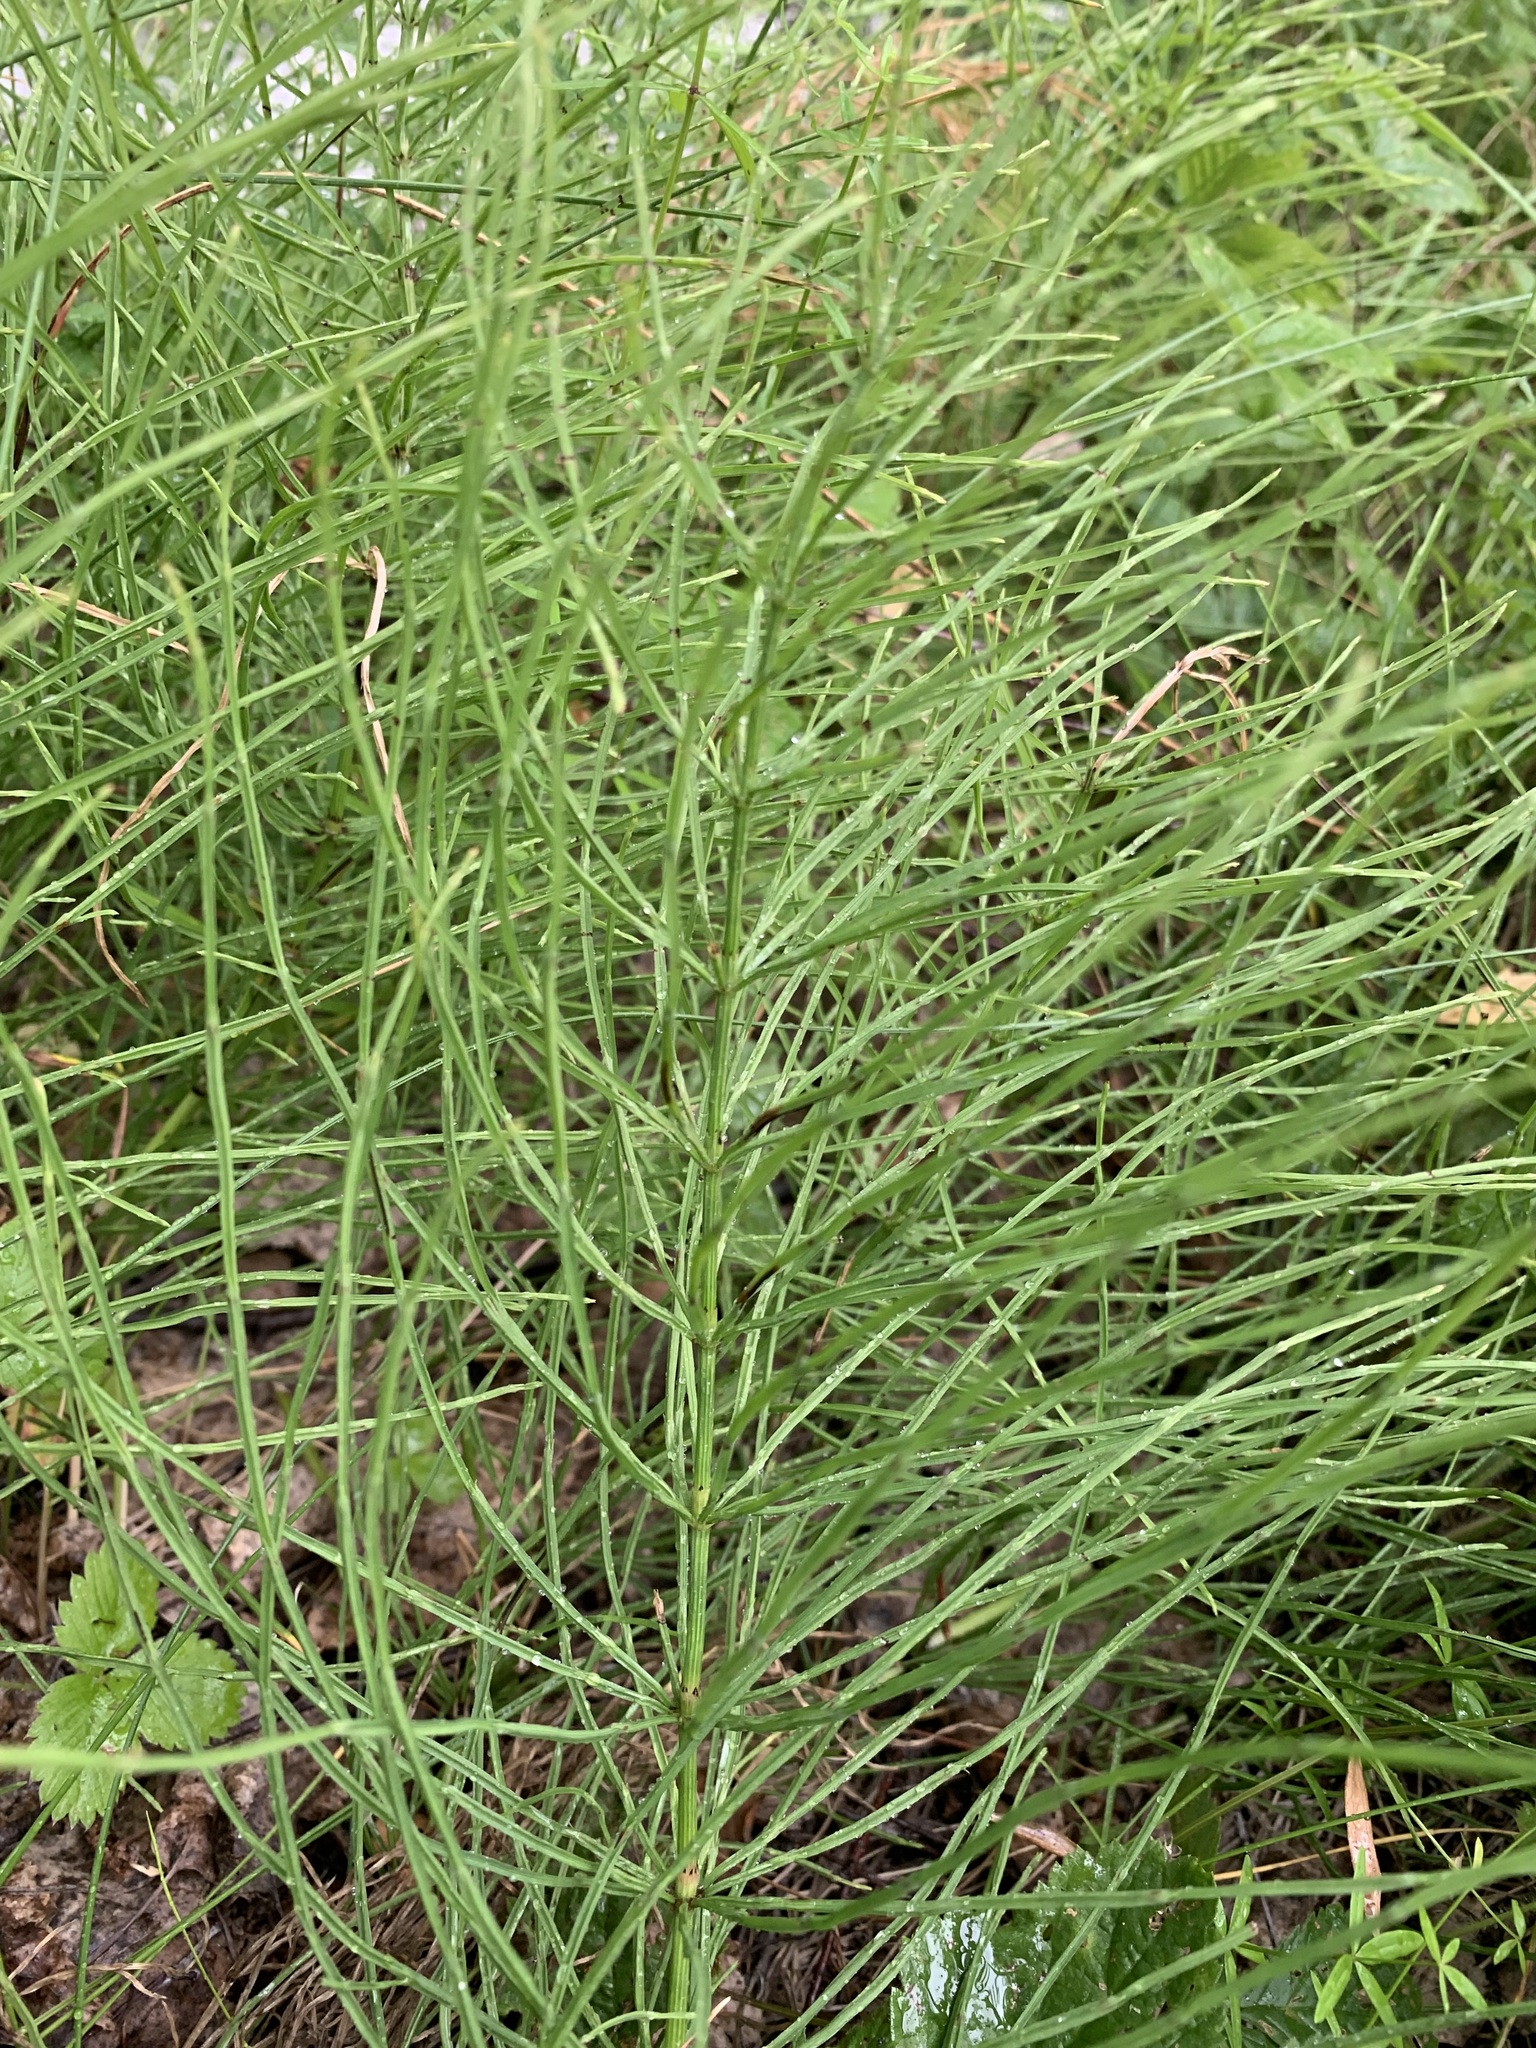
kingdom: Plantae
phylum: Tracheophyta
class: Polypodiopsida
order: Equisetales
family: Equisetaceae
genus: Equisetum
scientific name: Equisetum arvense
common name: Field horsetail
